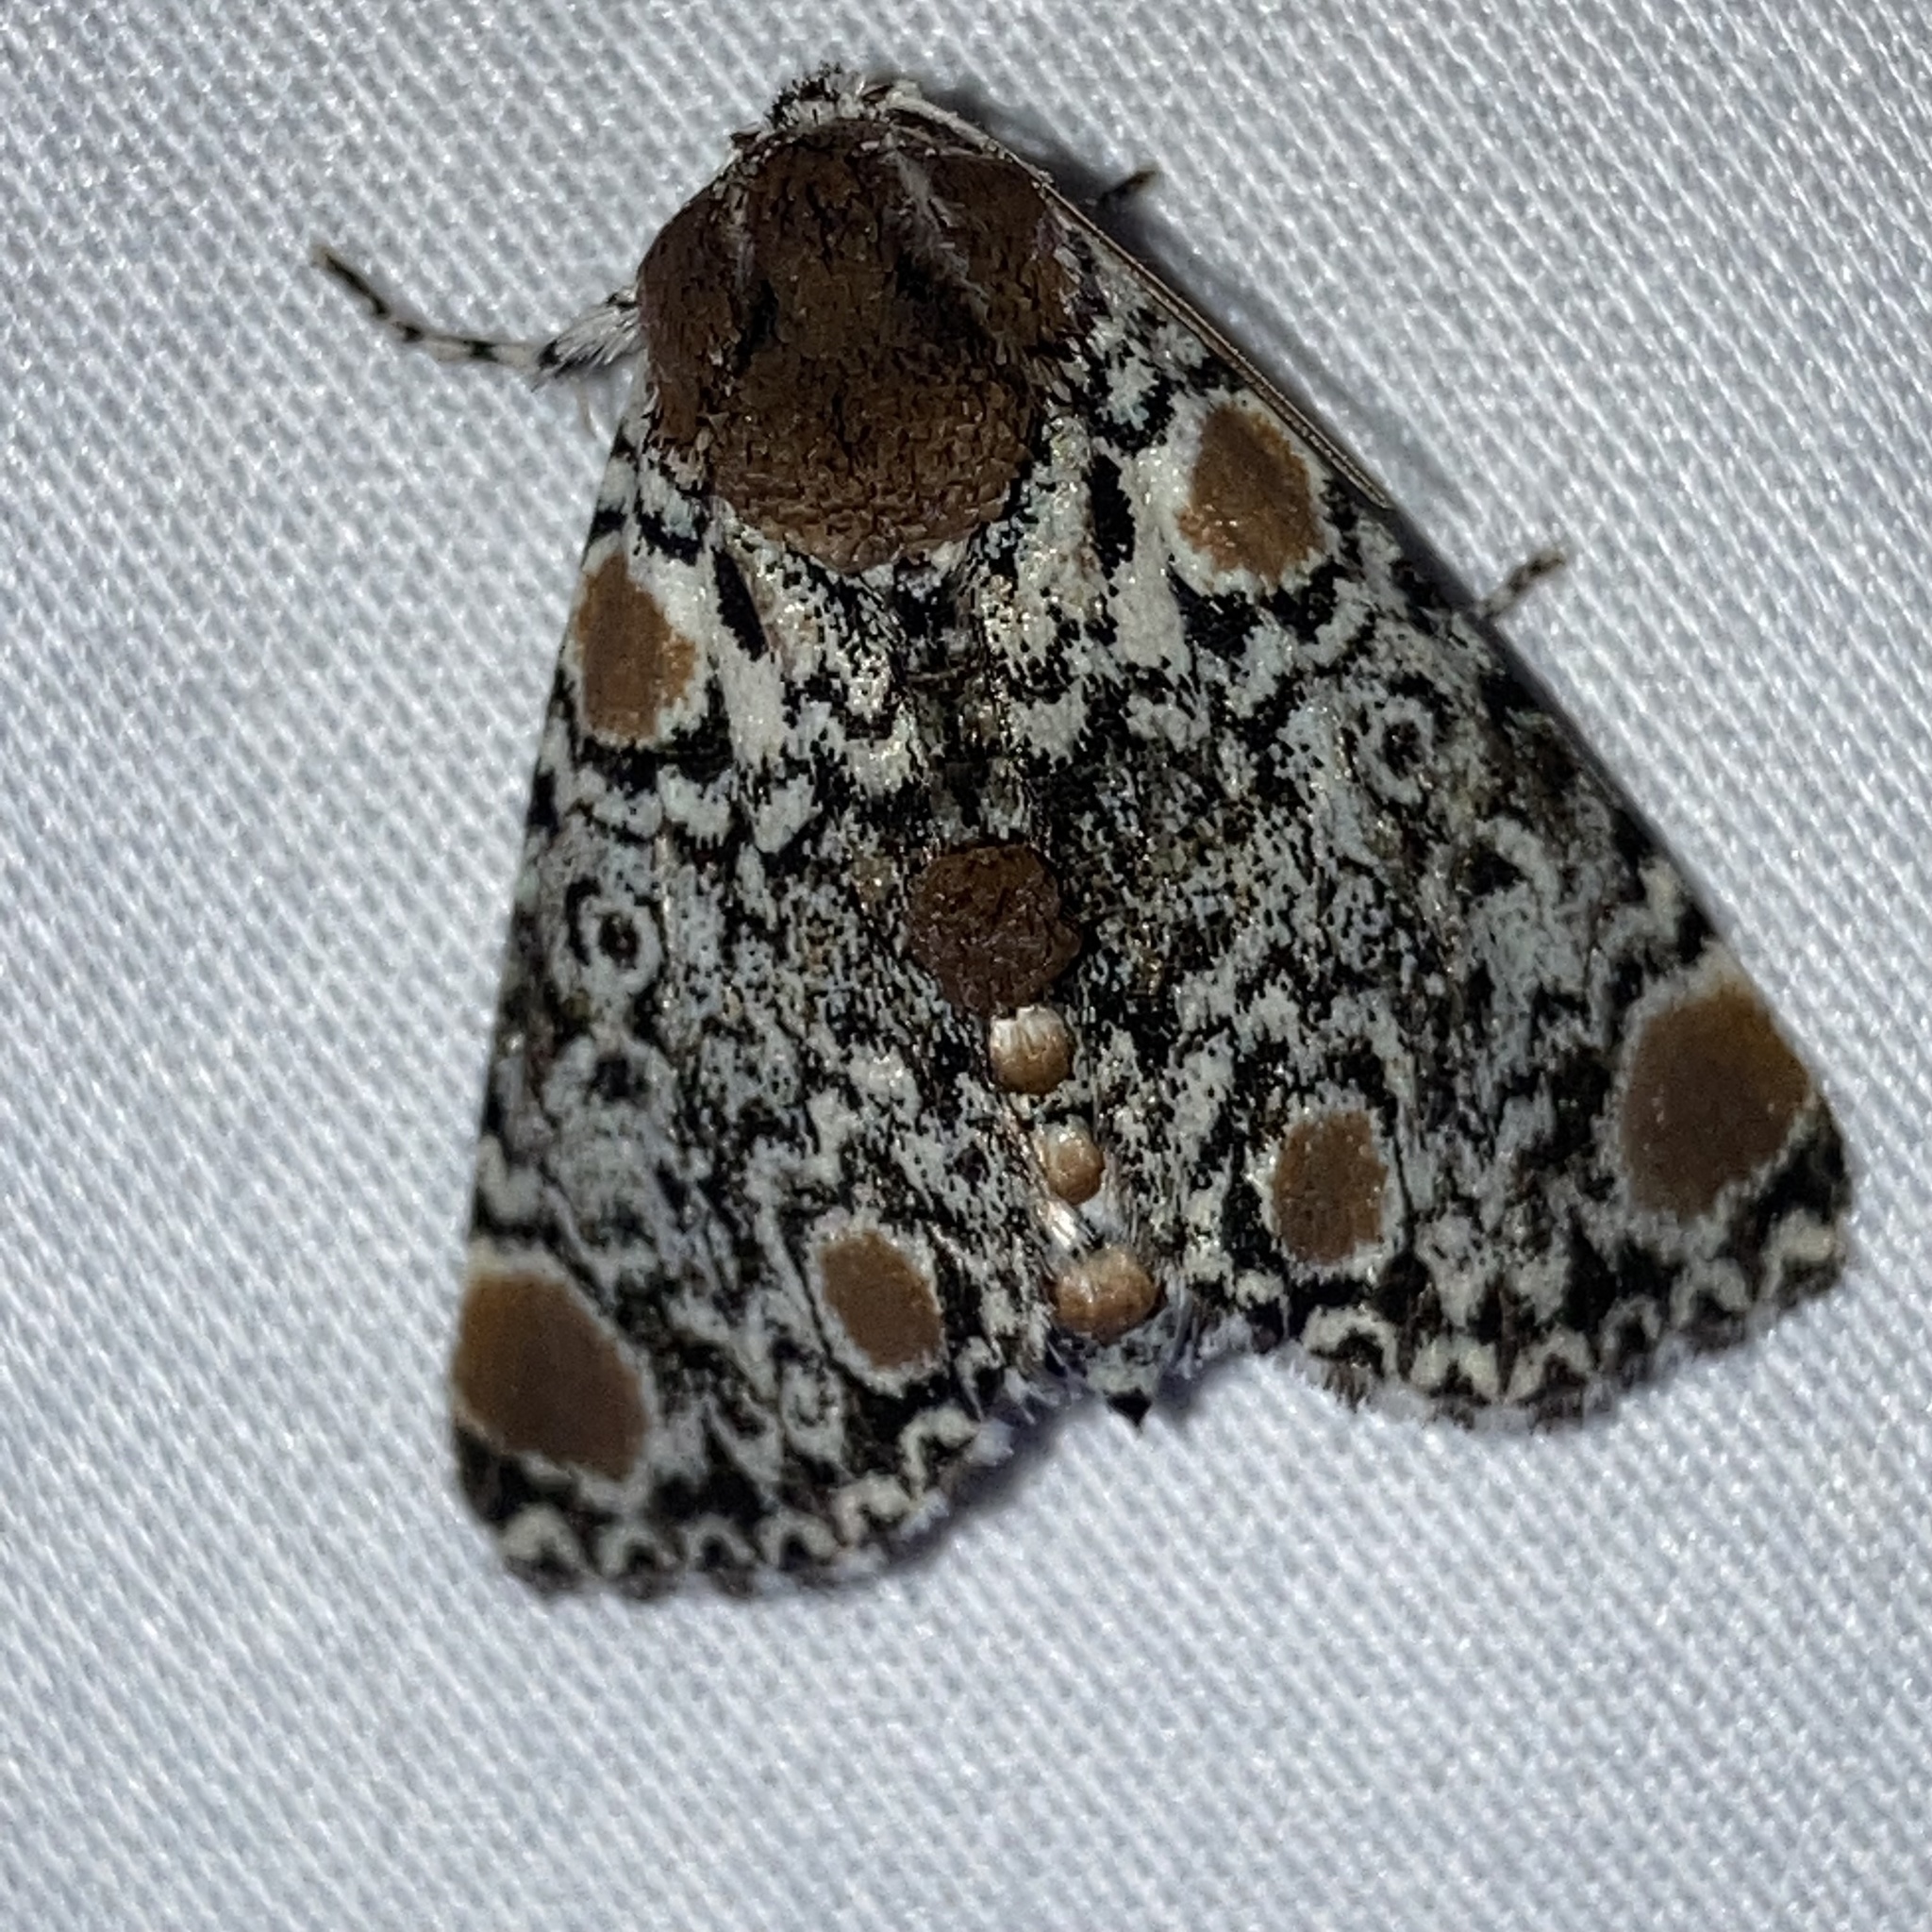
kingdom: Animalia
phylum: Arthropoda
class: Insecta
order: Lepidoptera
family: Noctuidae
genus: Harrisimemna
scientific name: Harrisimemna trisignata
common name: Harris threespot
